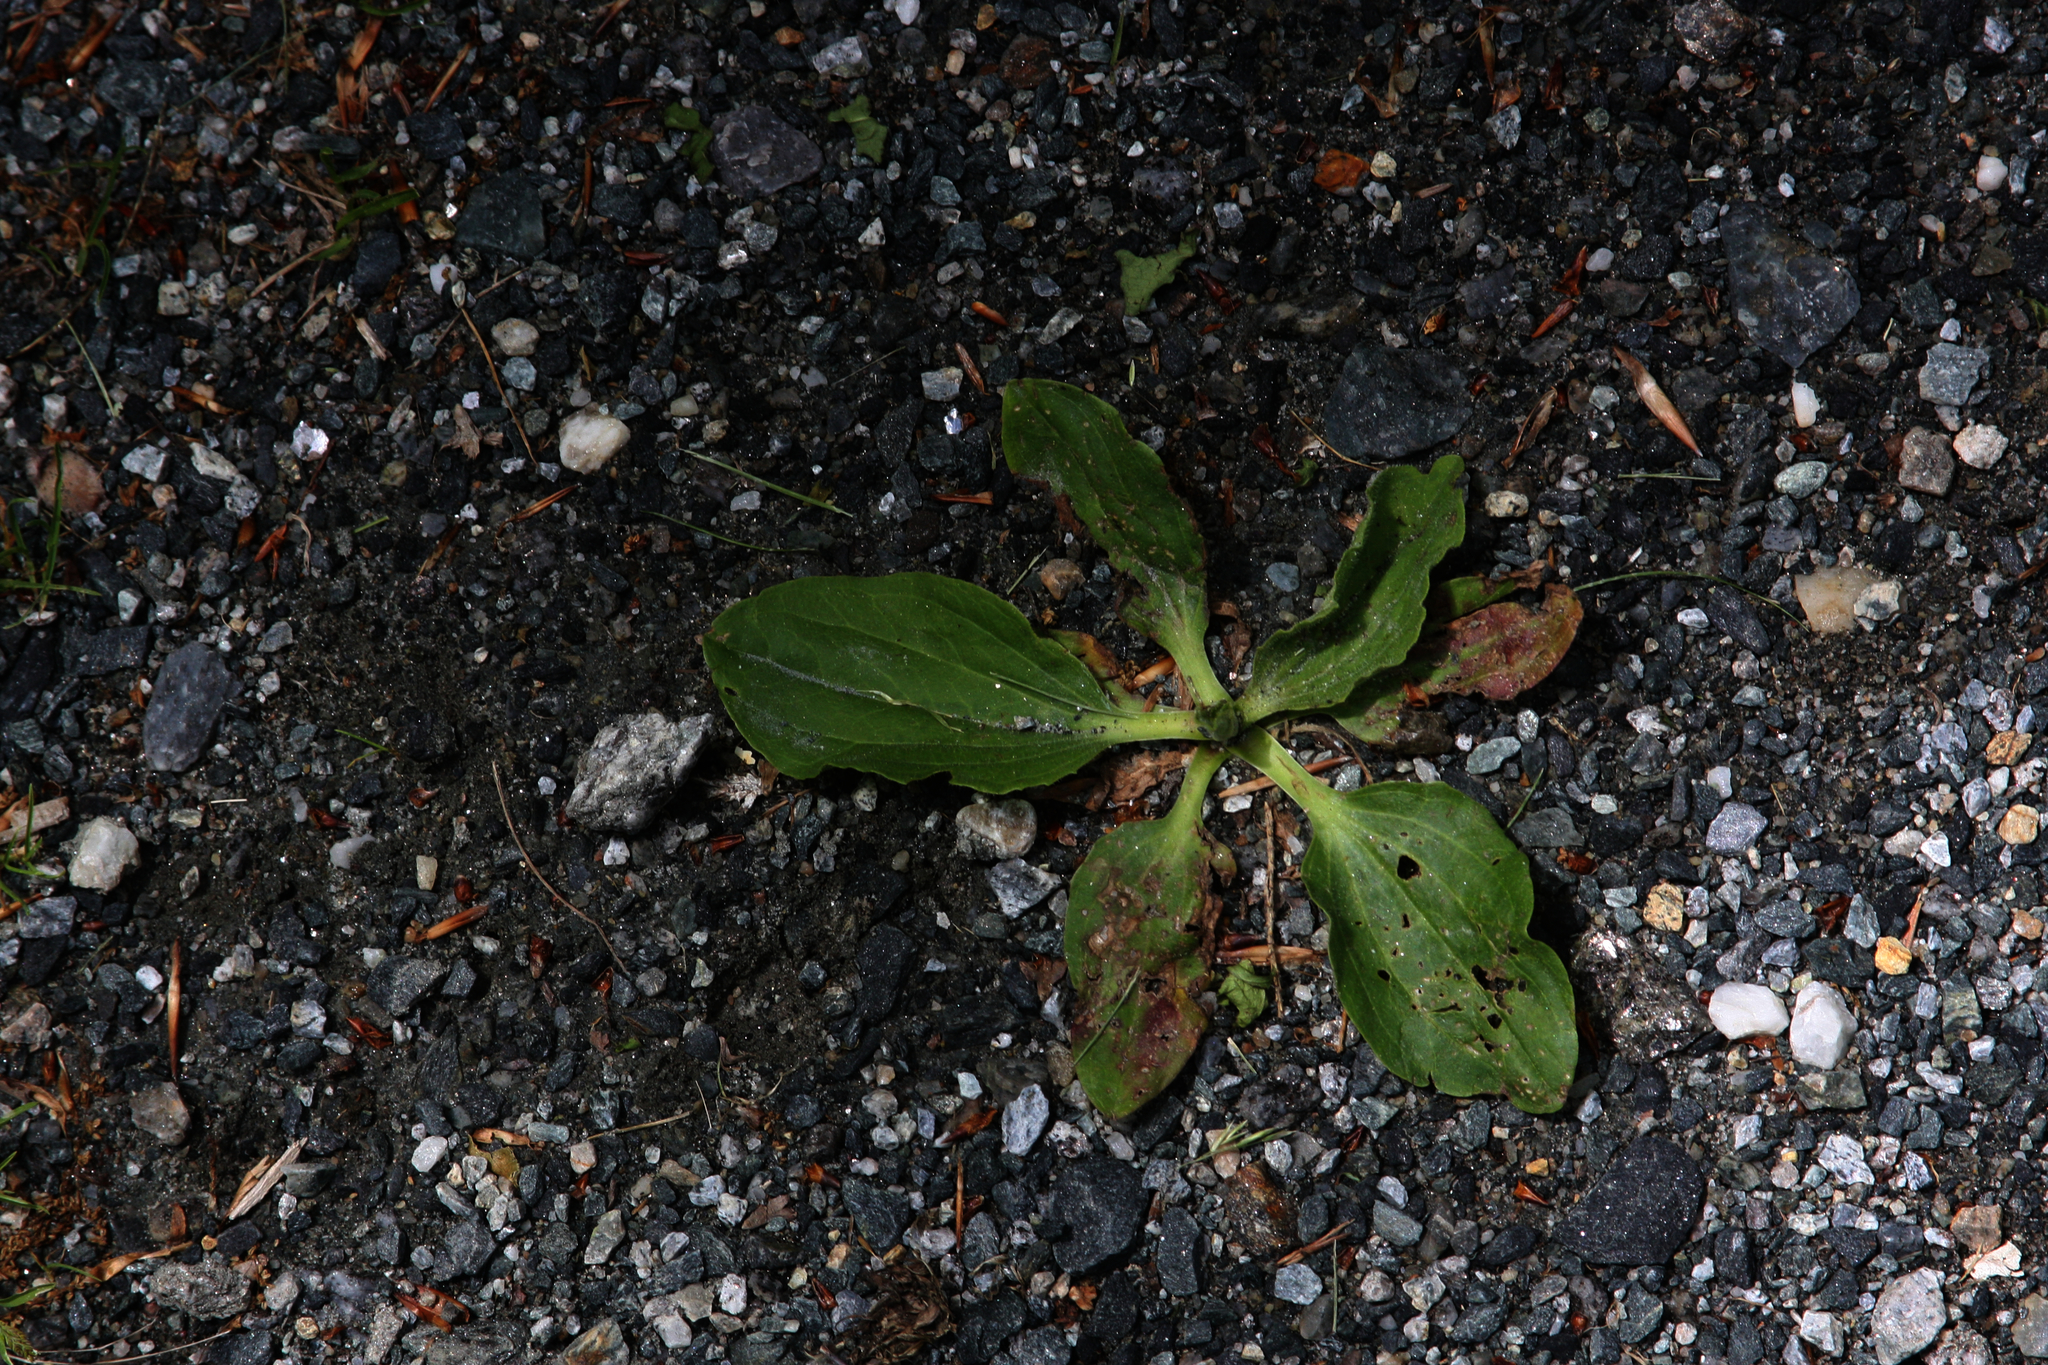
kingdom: Plantae
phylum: Tracheophyta
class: Magnoliopsida
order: Lamiales
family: Plantaginaceae
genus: Plantago
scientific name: Plantago major
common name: Common plantain
